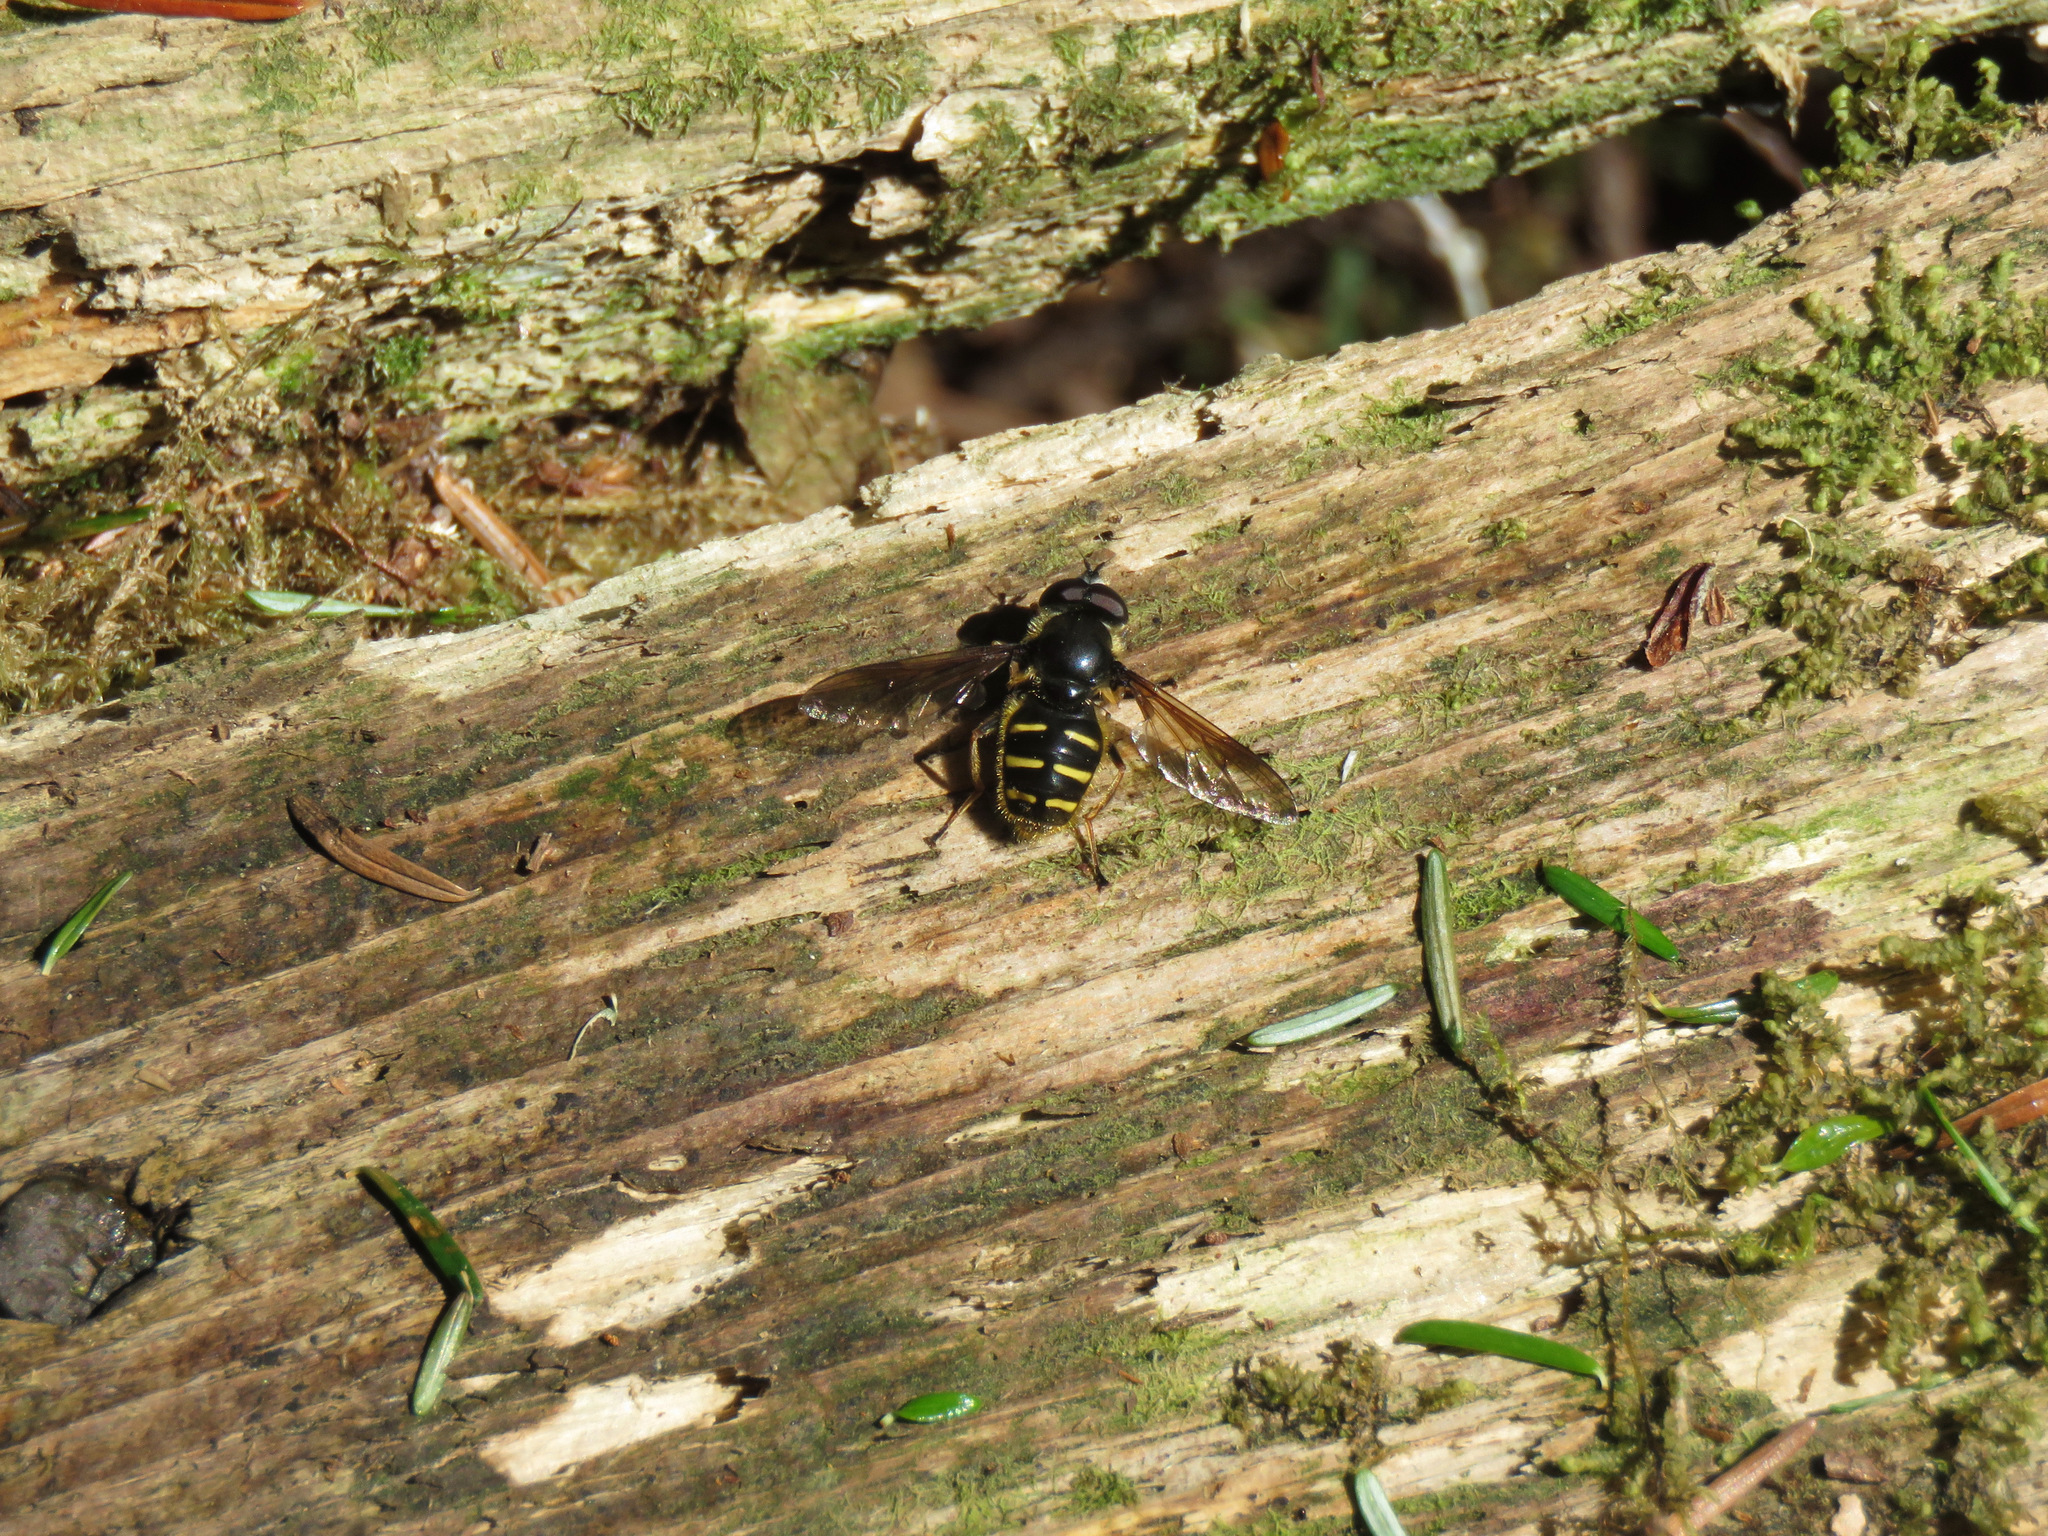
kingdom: Animalia
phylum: Arthropoda
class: Insecta
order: Diptera
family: Syrphidae
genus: Sericomyia
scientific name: Sericomyia chalcopyga
